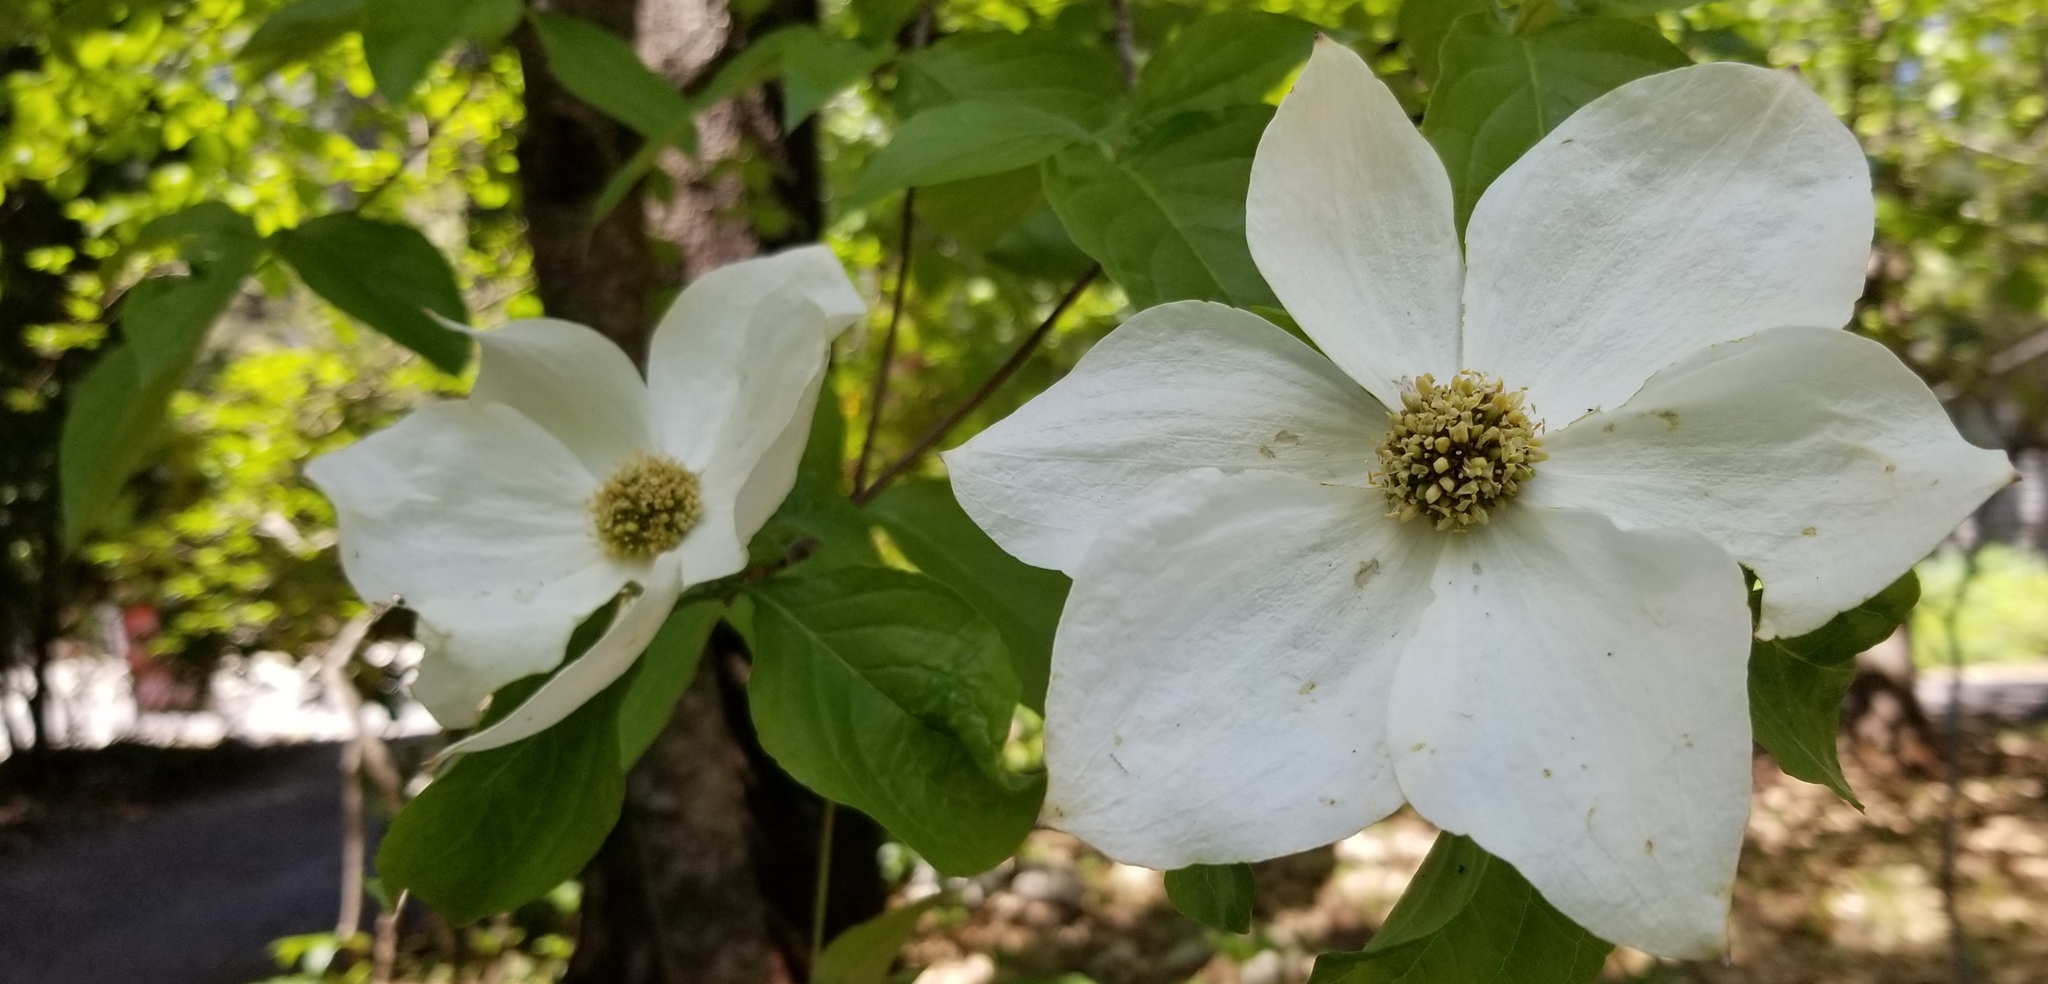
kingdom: Plantae
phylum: Tracheophyta
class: Magnoliopsida
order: Cornales
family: Cornaceae
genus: Cornus
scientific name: Cornus nuttallii
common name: Pacific dogwood
